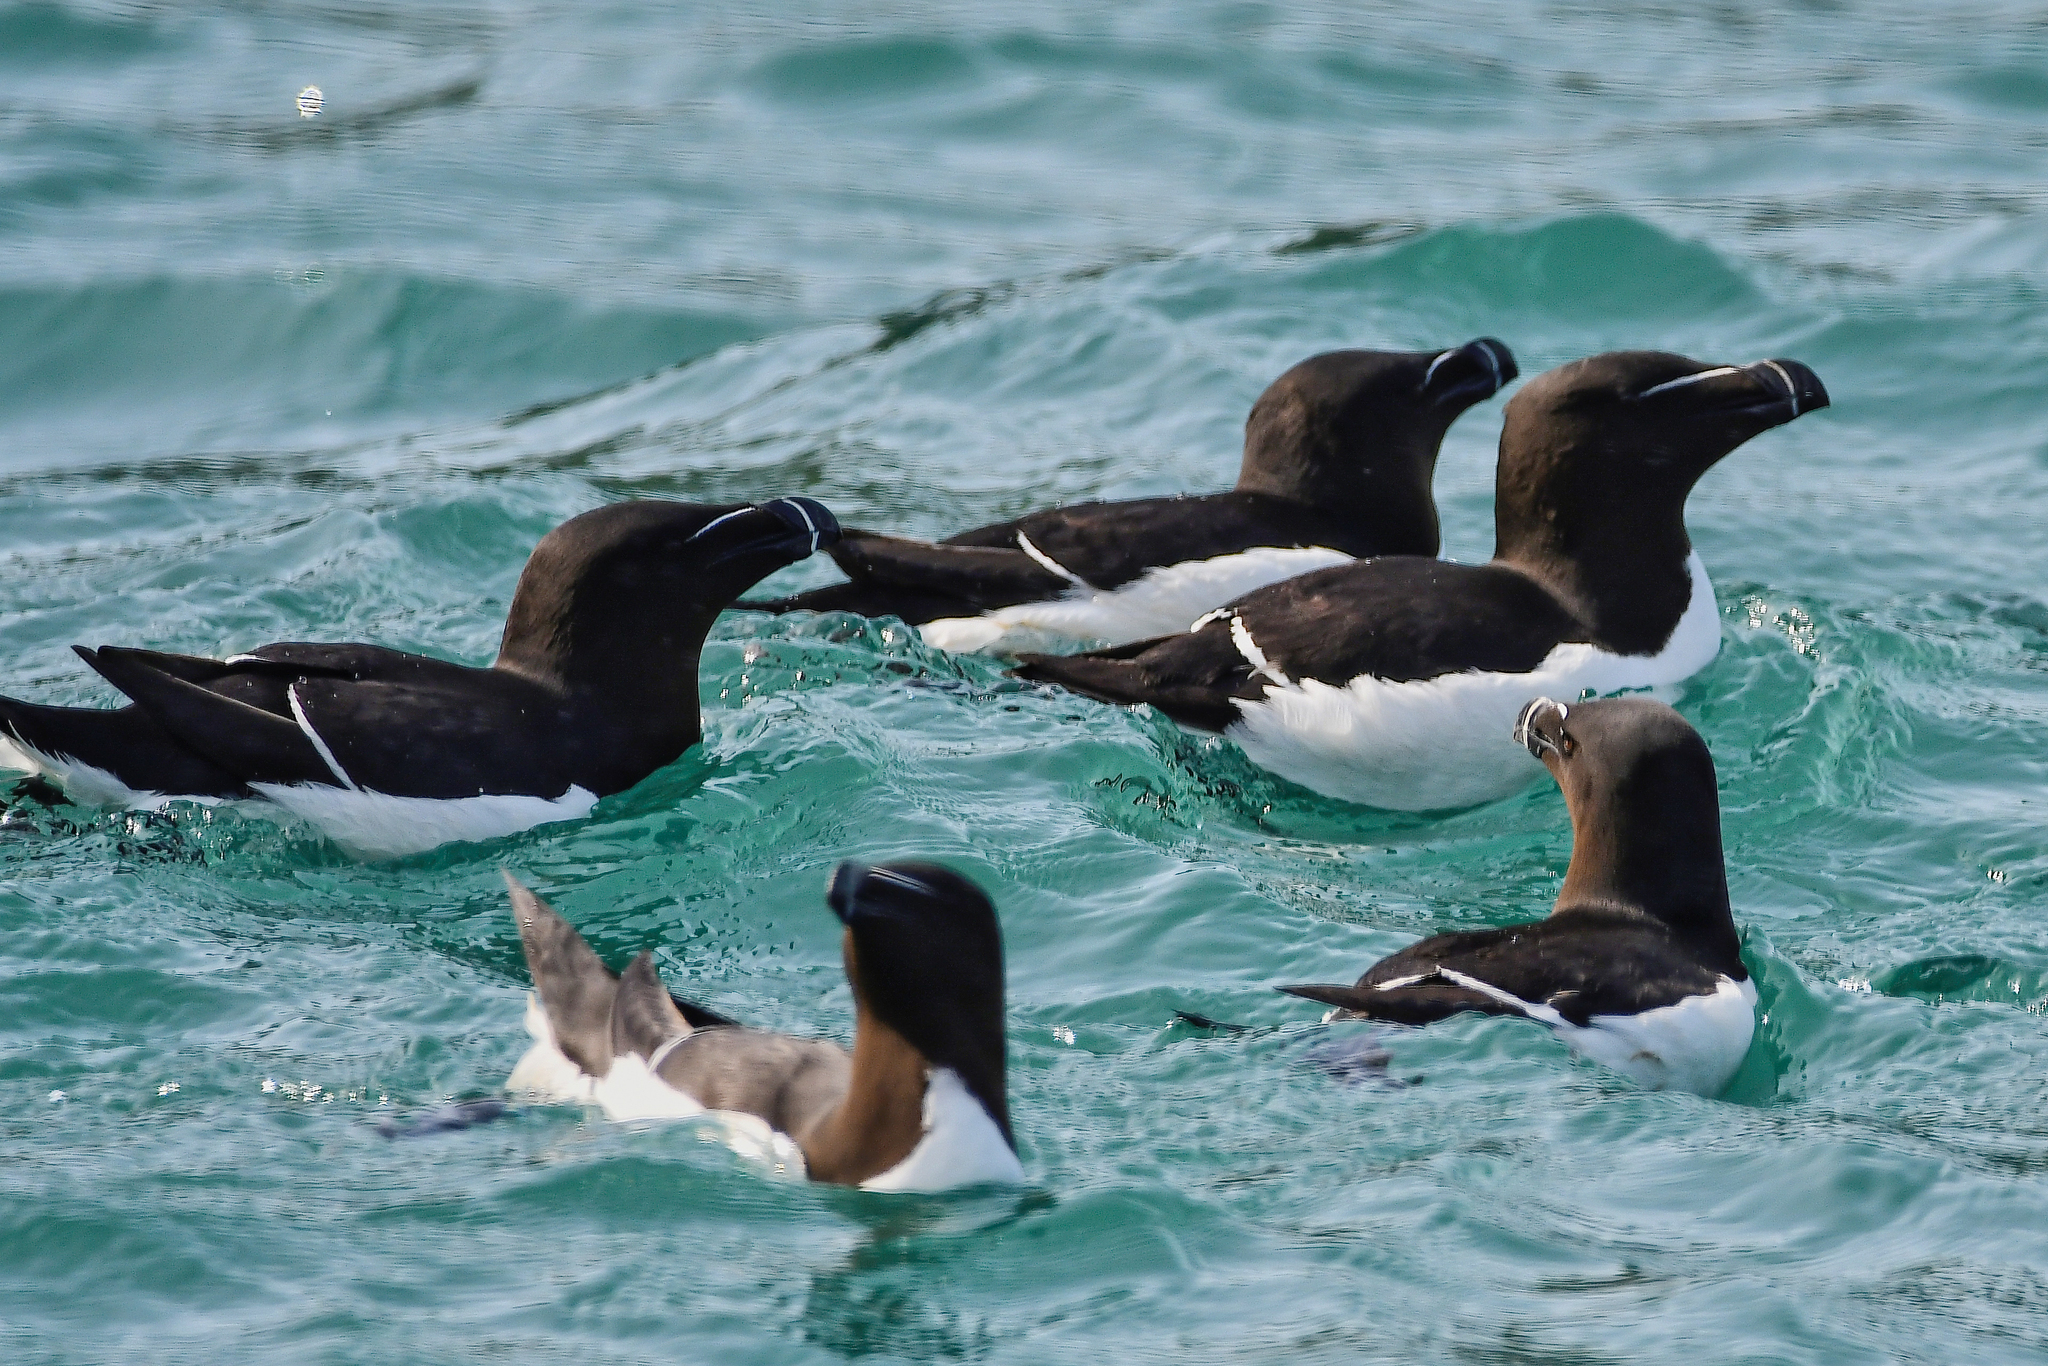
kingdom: Animalia
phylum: Chordata
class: Aves
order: Charadriiformes
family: Alcidae
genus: Alca
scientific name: Alca torda
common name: Razorbill
